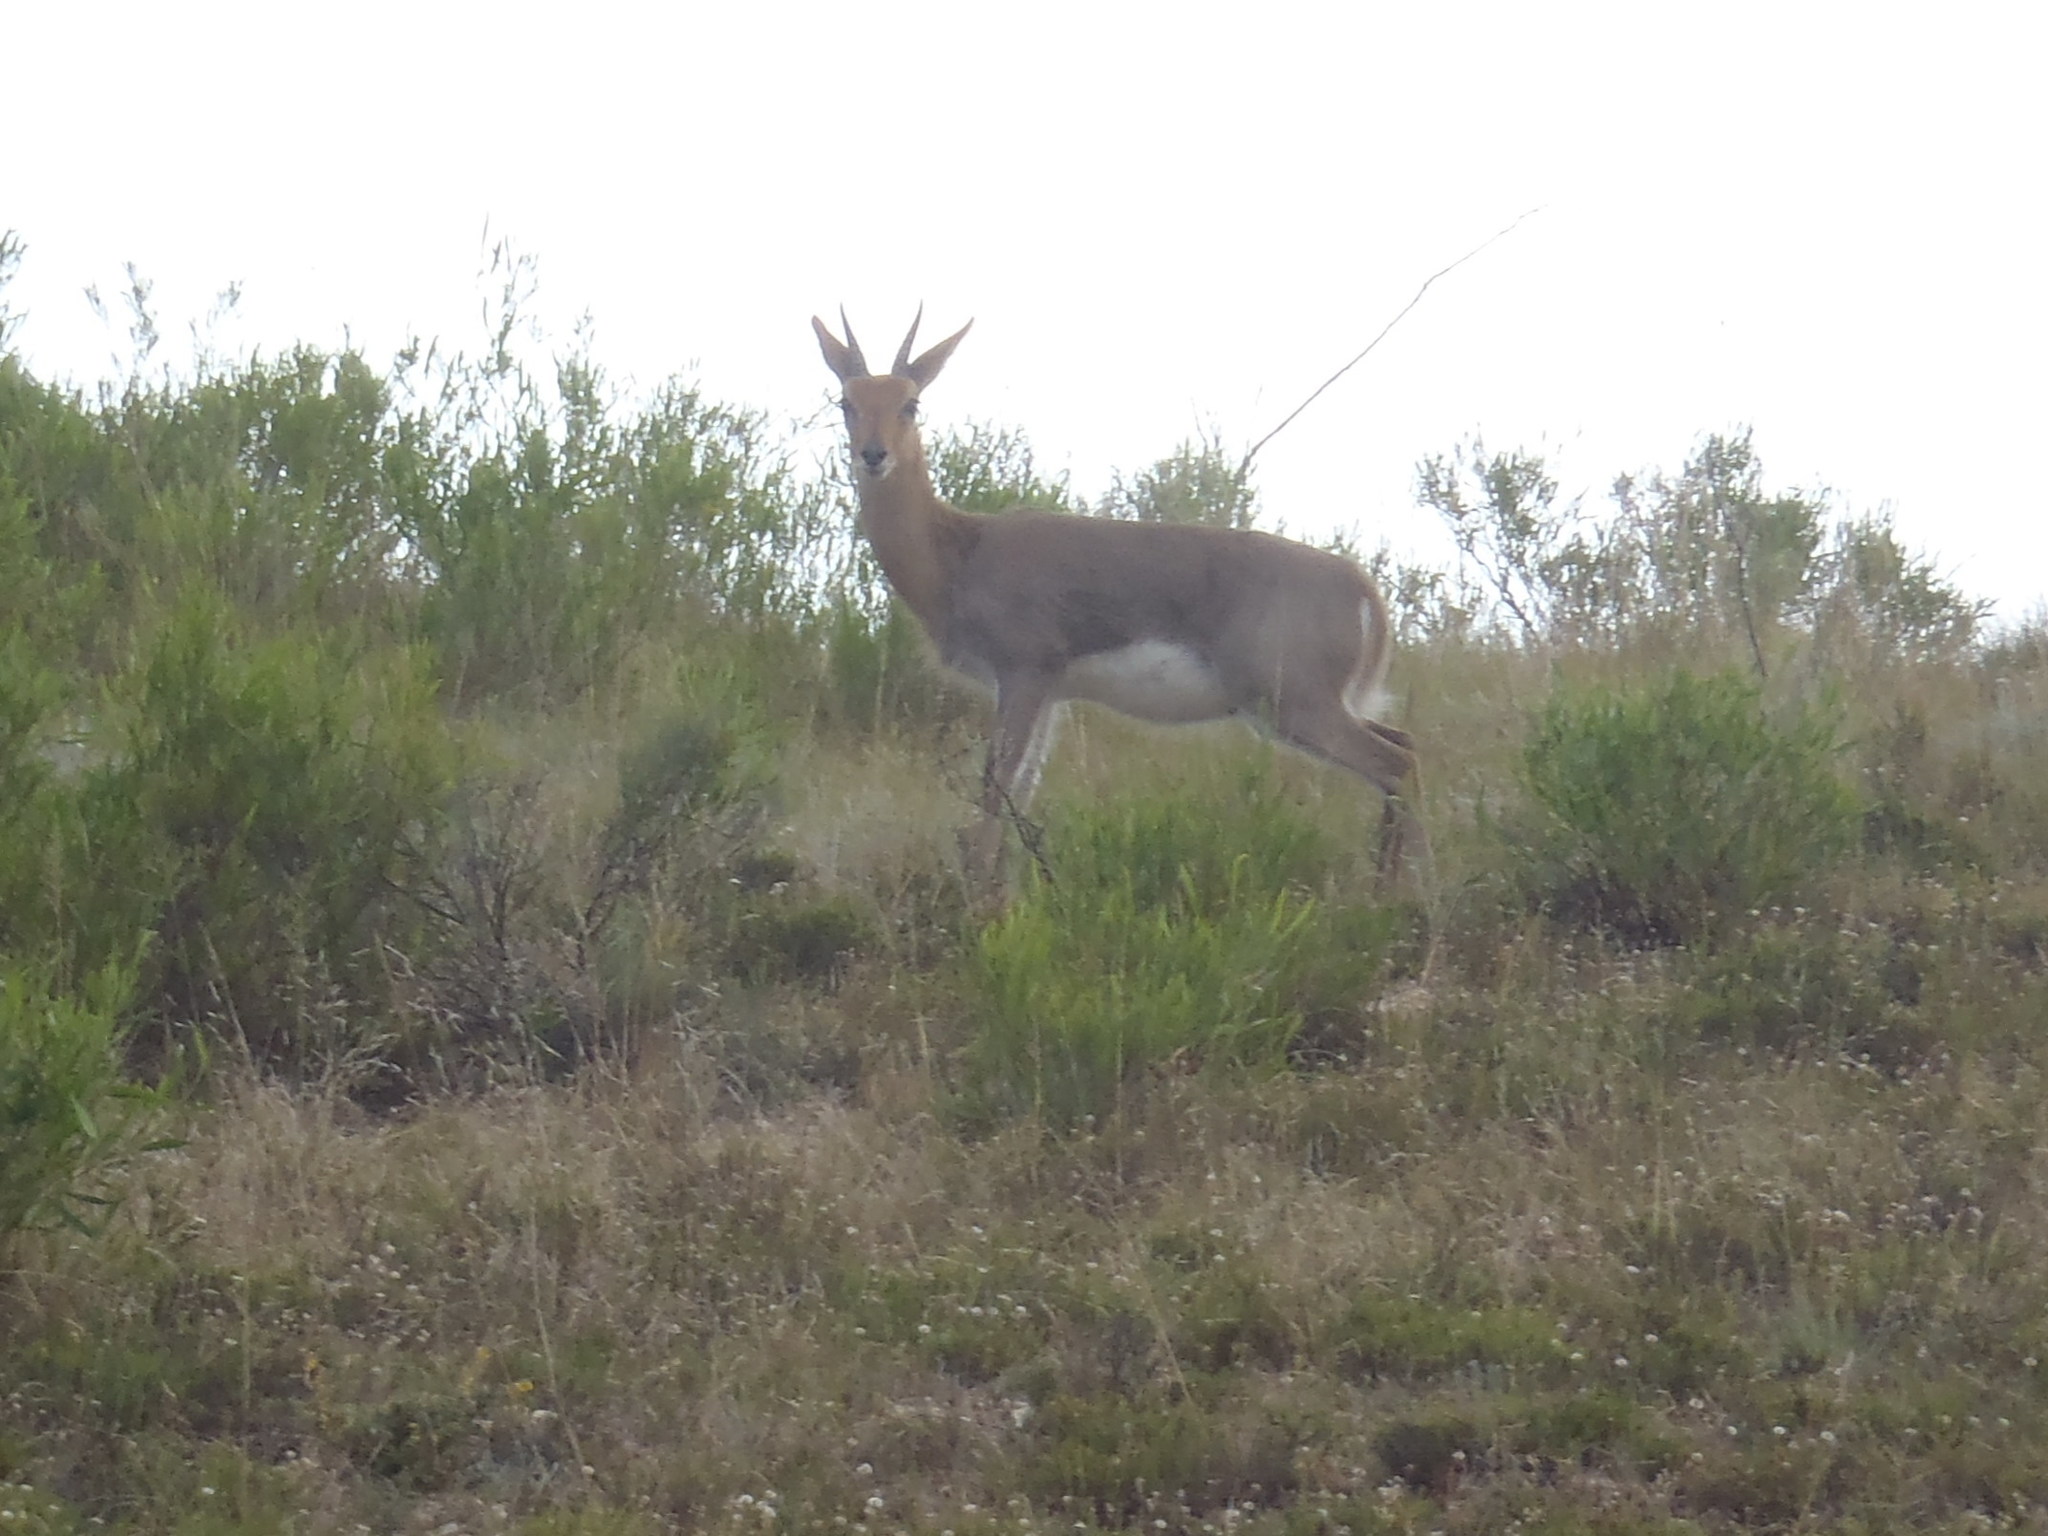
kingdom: Animalia
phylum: Chordata
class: Mammalia
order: Artiodactyla
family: Bovidae
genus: Redunca
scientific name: Redunca fulvorufula
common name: Mountain reedbuck
